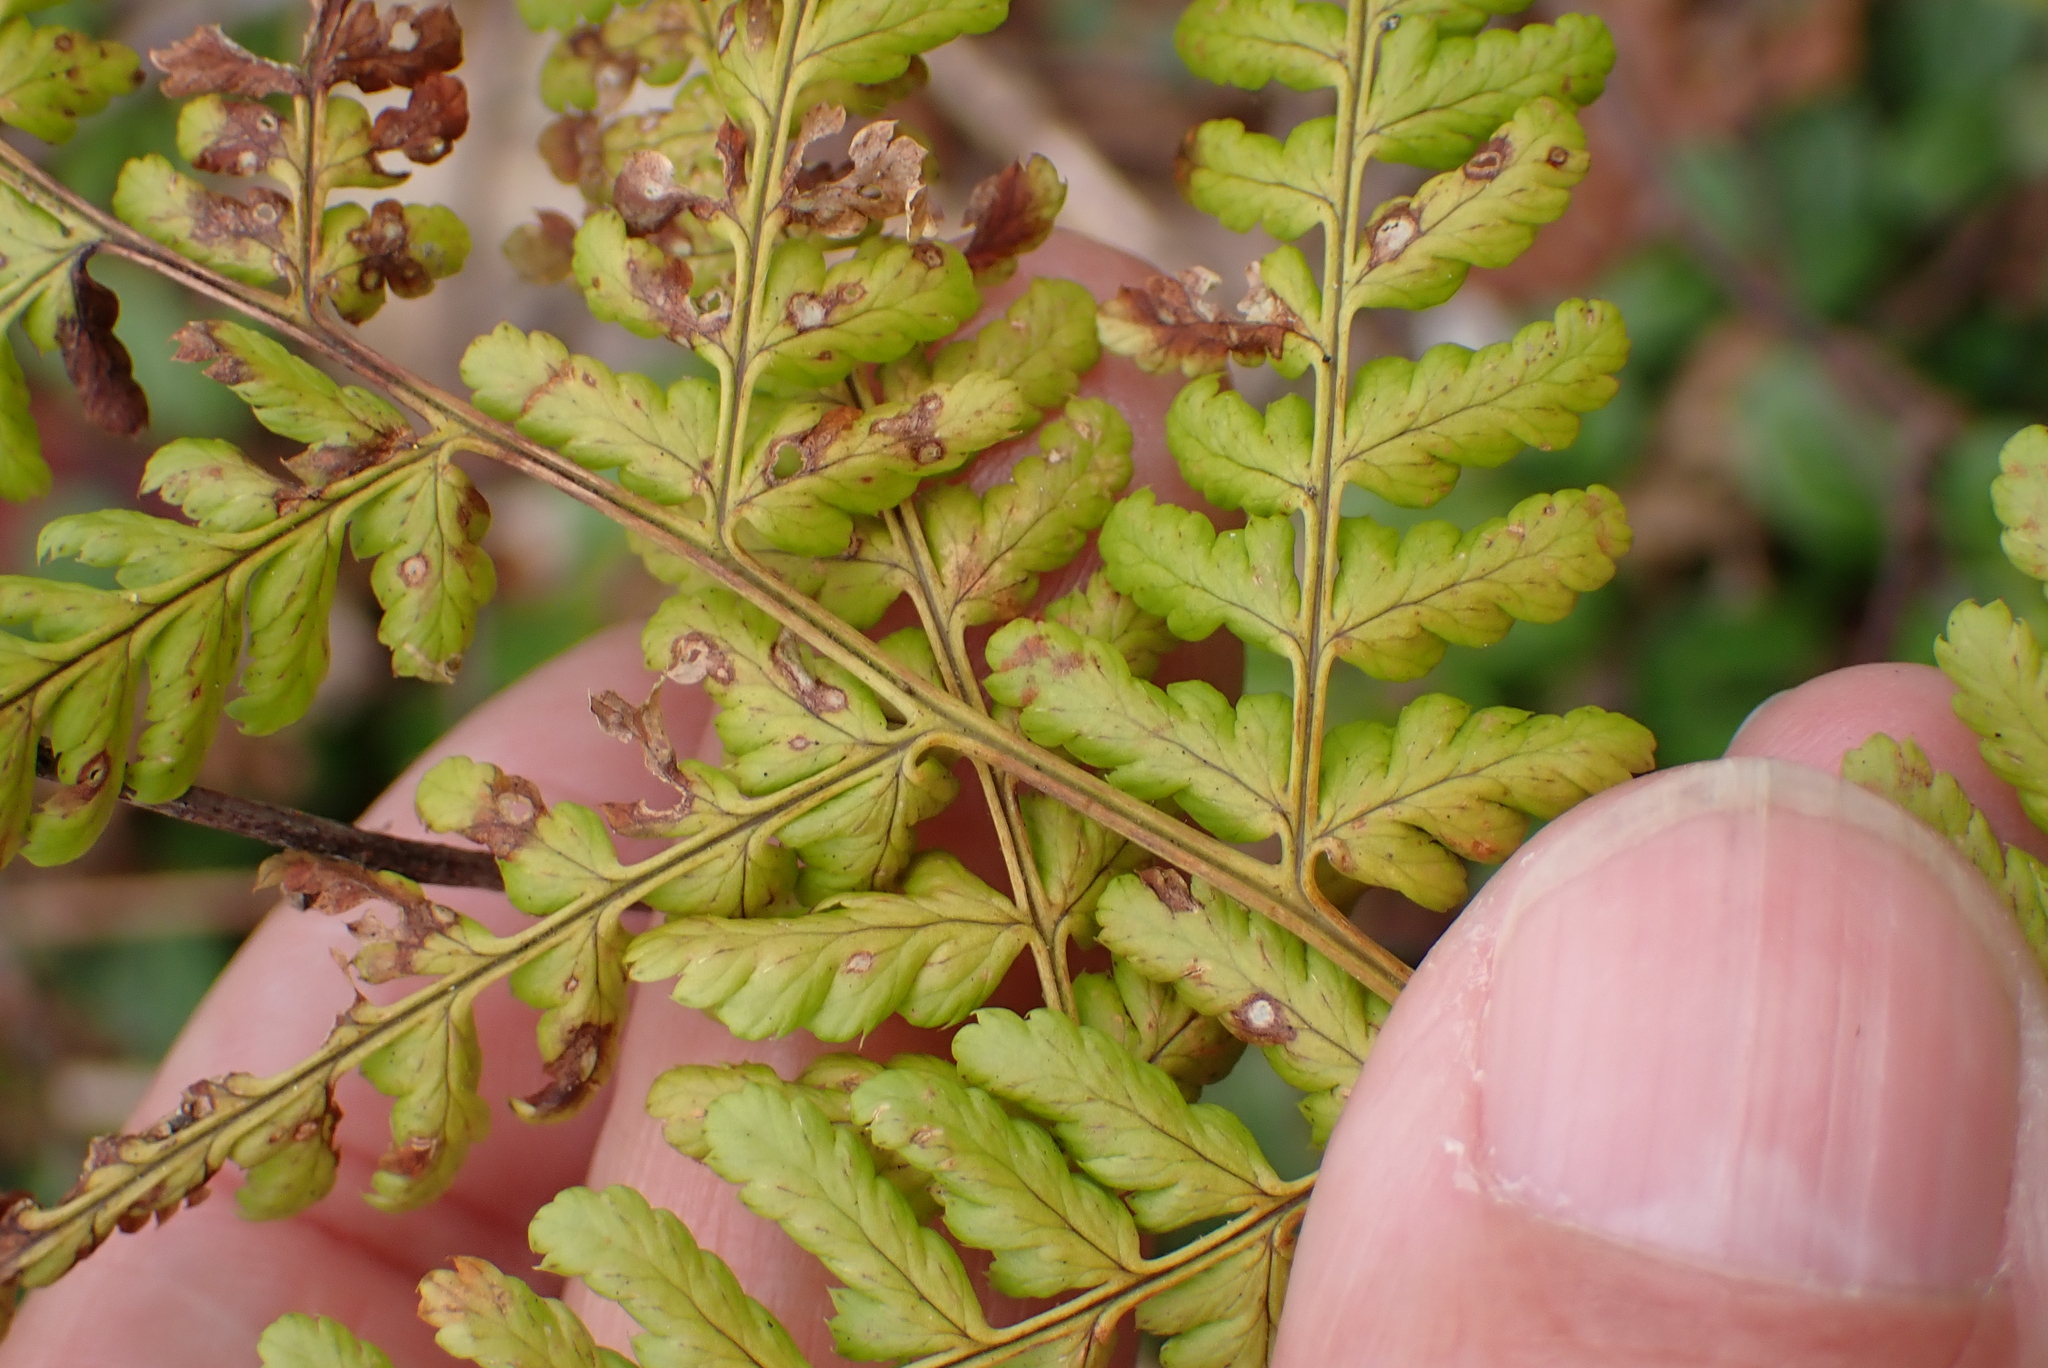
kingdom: Plantae
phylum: Tracheophyta
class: Polypodiopsida
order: Polypodiales
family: Dryopteridaceae
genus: Dryopteris
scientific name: Dryopteris dilatata
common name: Broad buckler-fern
